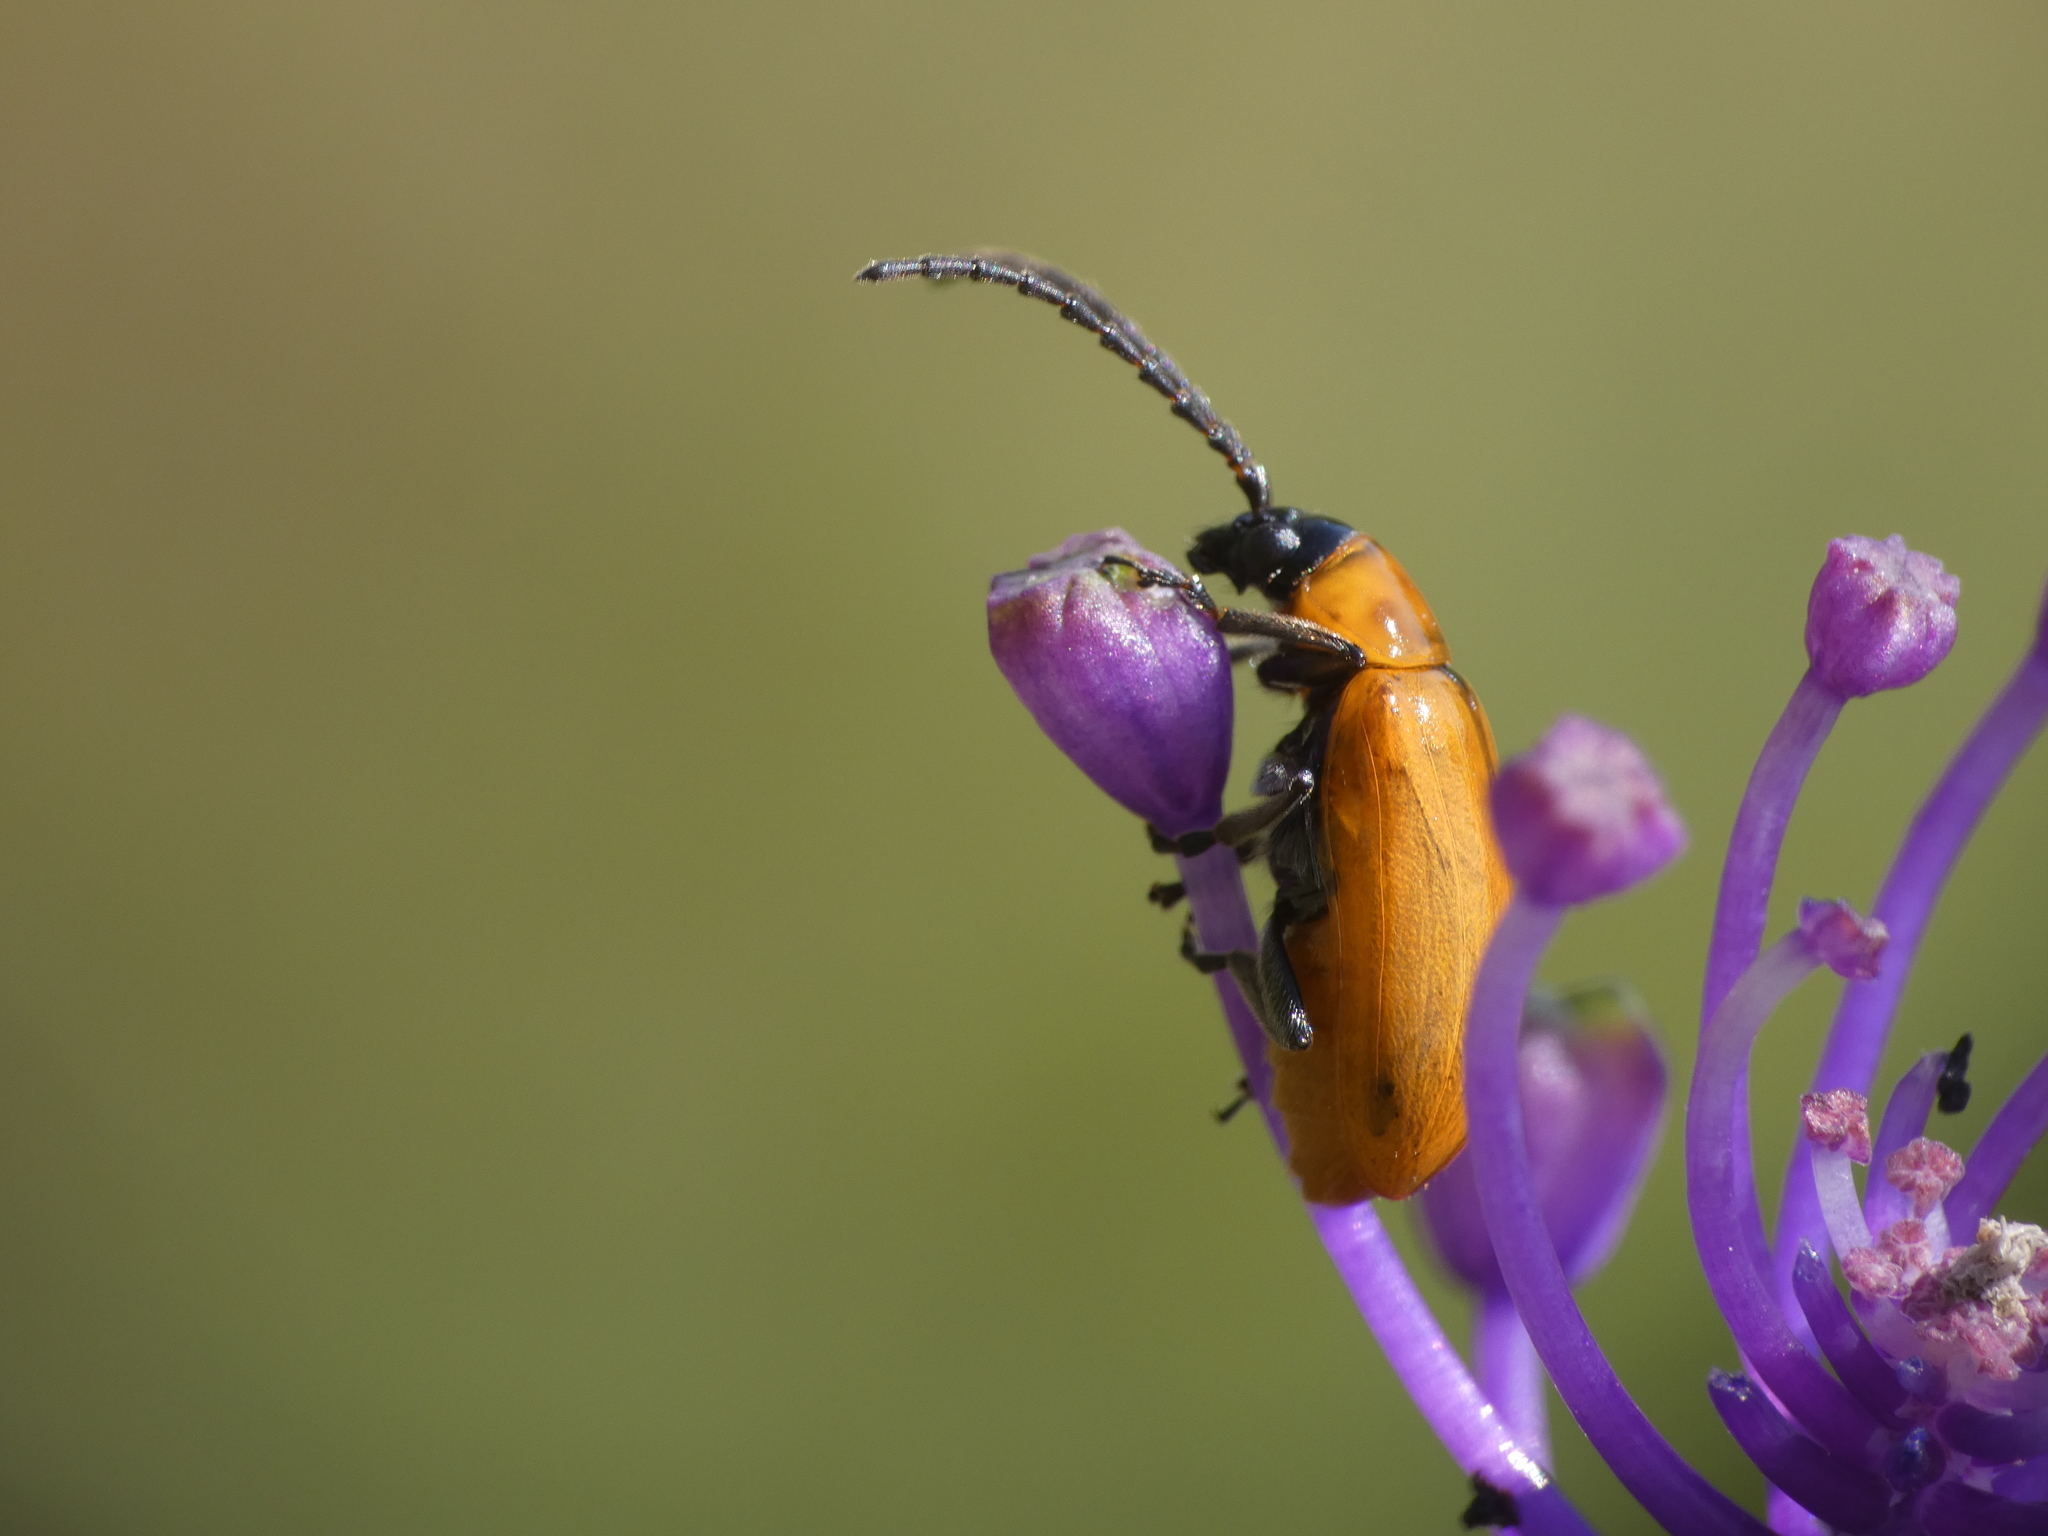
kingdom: Animalia
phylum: Arthropoda
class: Insecta
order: Coleoptera
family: Chrysomelidae
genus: Exosoma
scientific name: Exosoma lusitanicum
